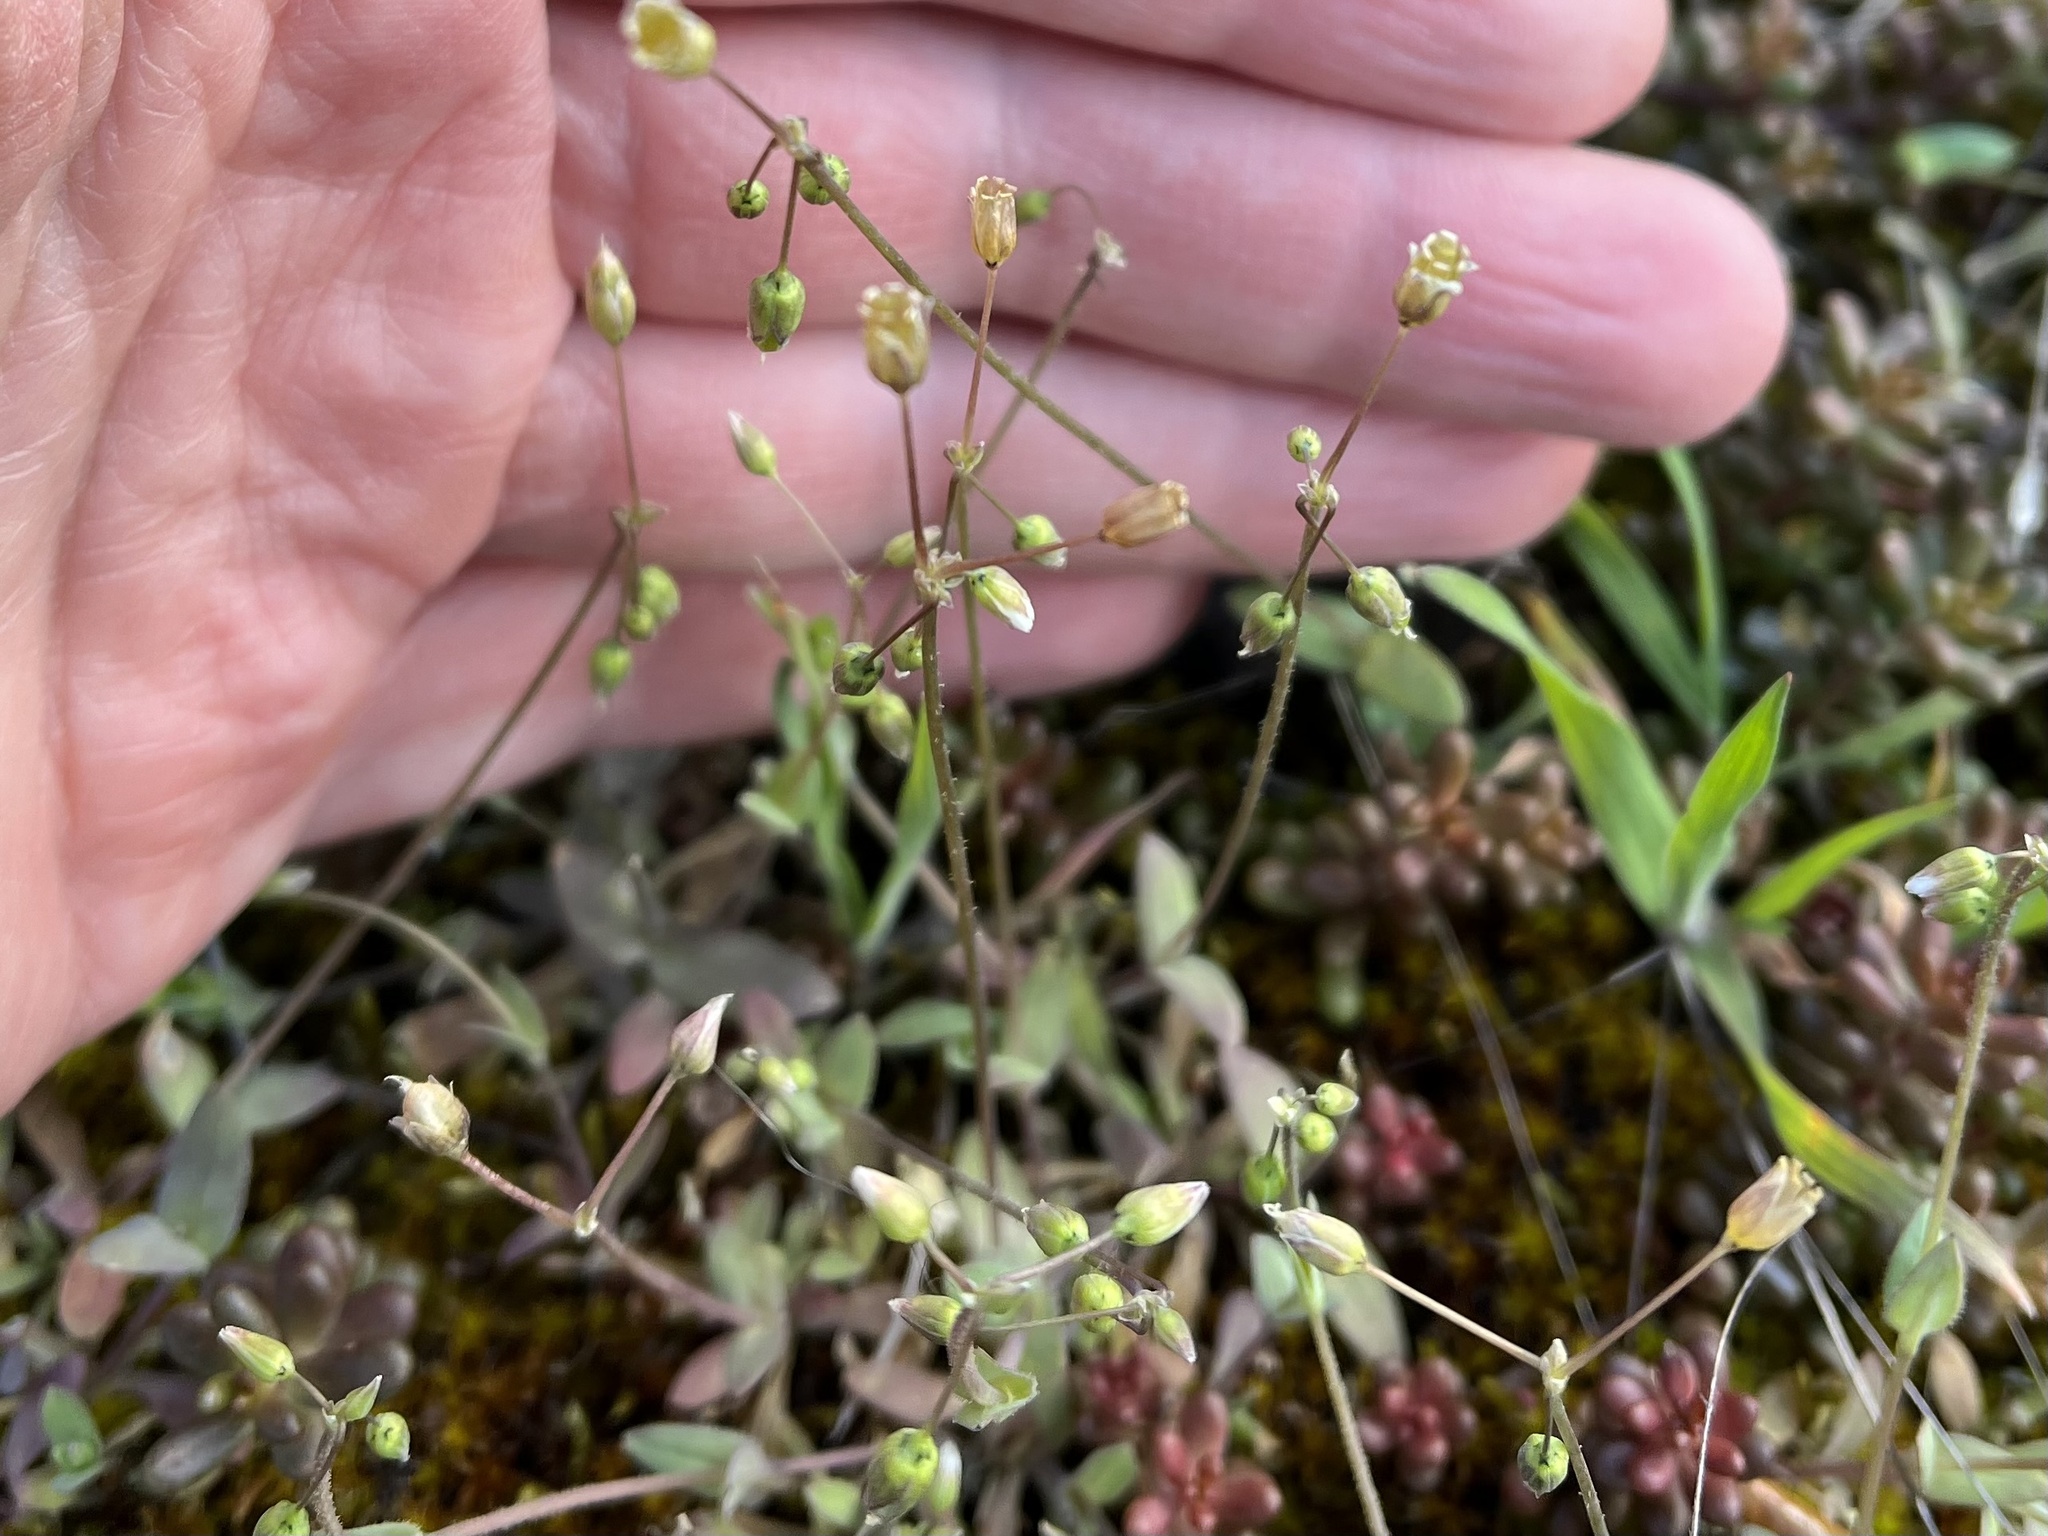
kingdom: Plantae
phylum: Tracheophyta
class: Magnoliopsida
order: Caryophyllales
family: Caryophyllaceae
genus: Holosteum
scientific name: Holosteum umbellatum
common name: Jagged chickweed
